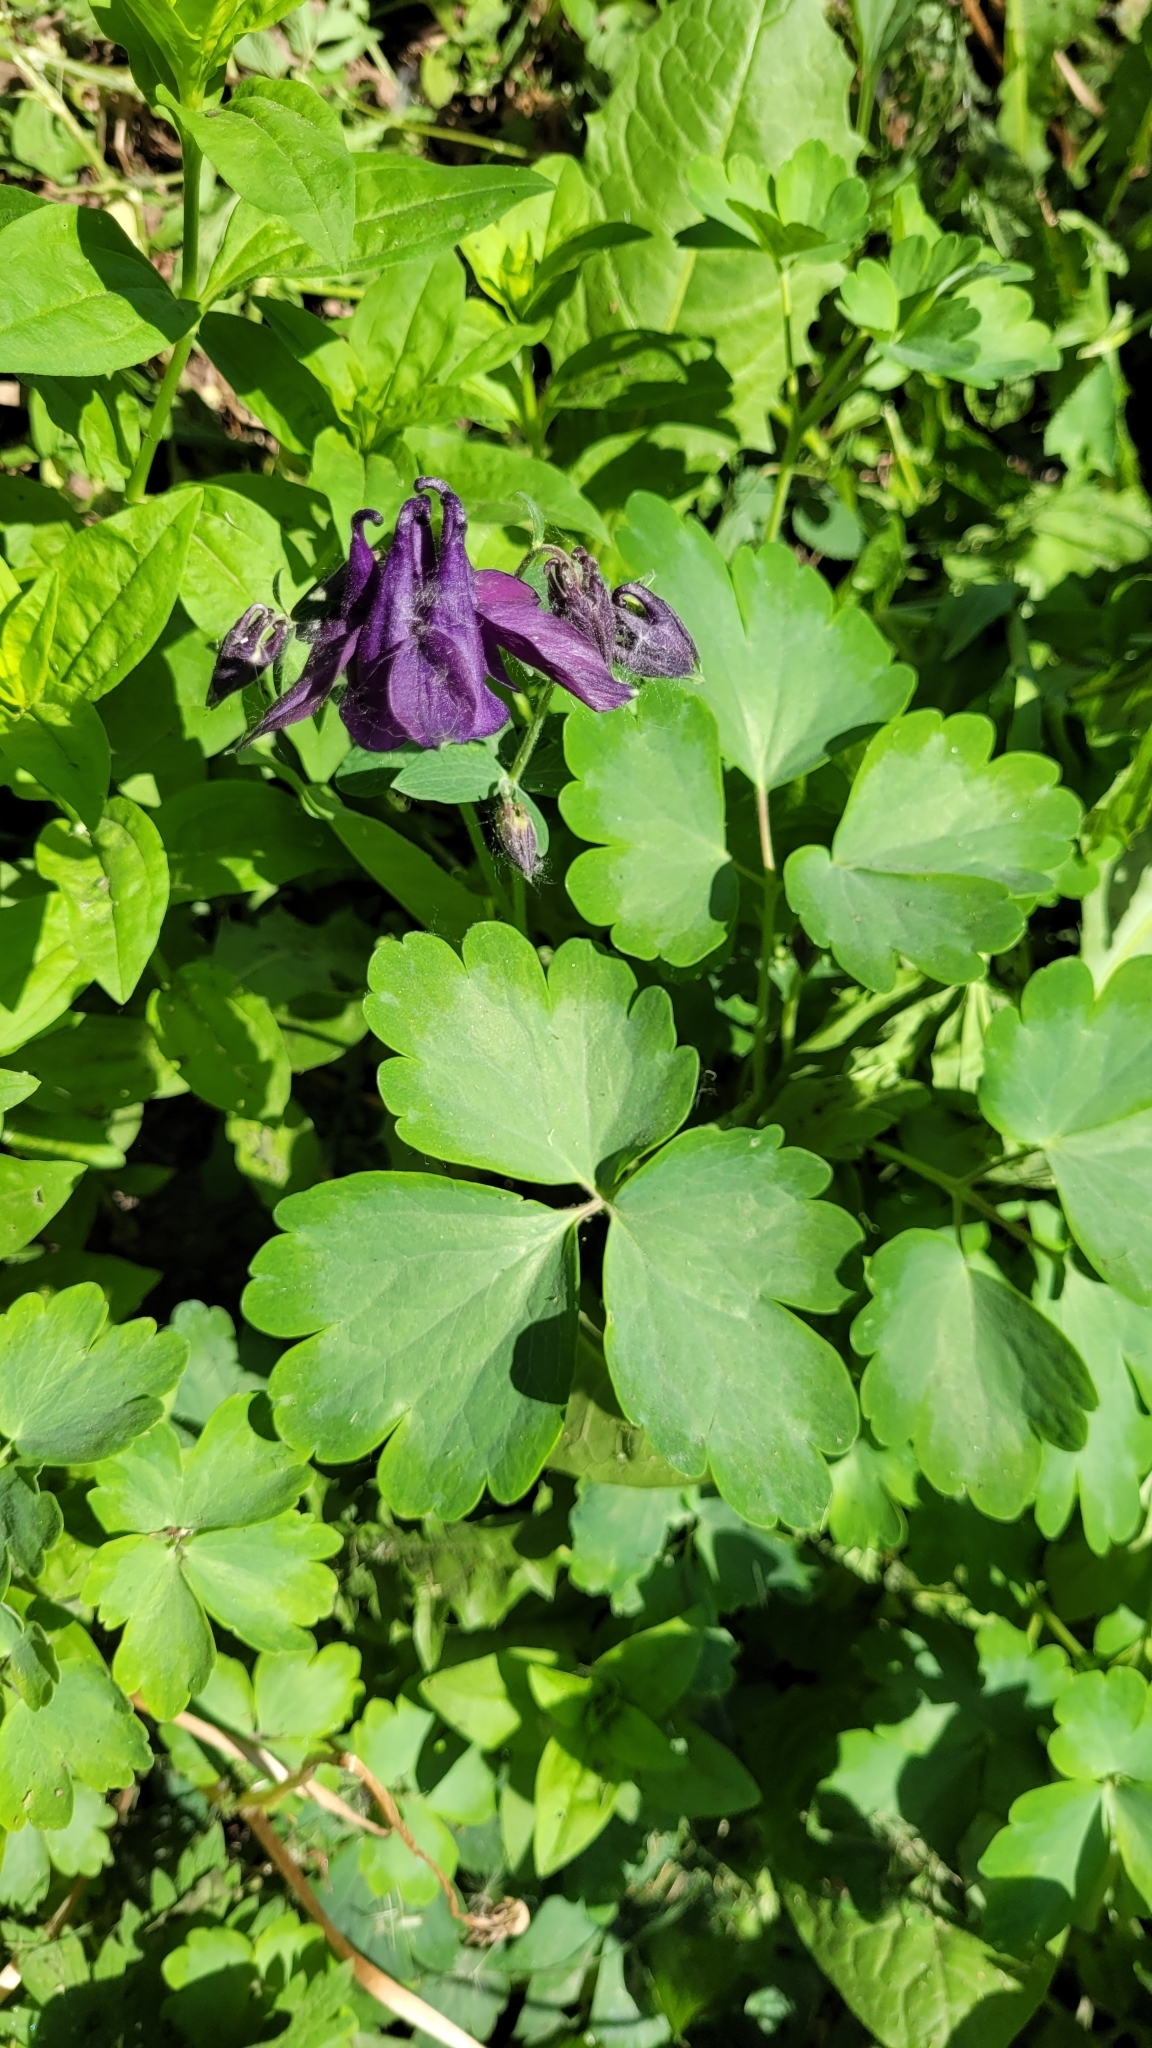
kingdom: Plantae
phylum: Tracheophyta
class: Magnoliopsida
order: Ranunculales
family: Ranunculaceae
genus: Aquilegia
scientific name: Aquilegia vulgaris
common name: Columbine
